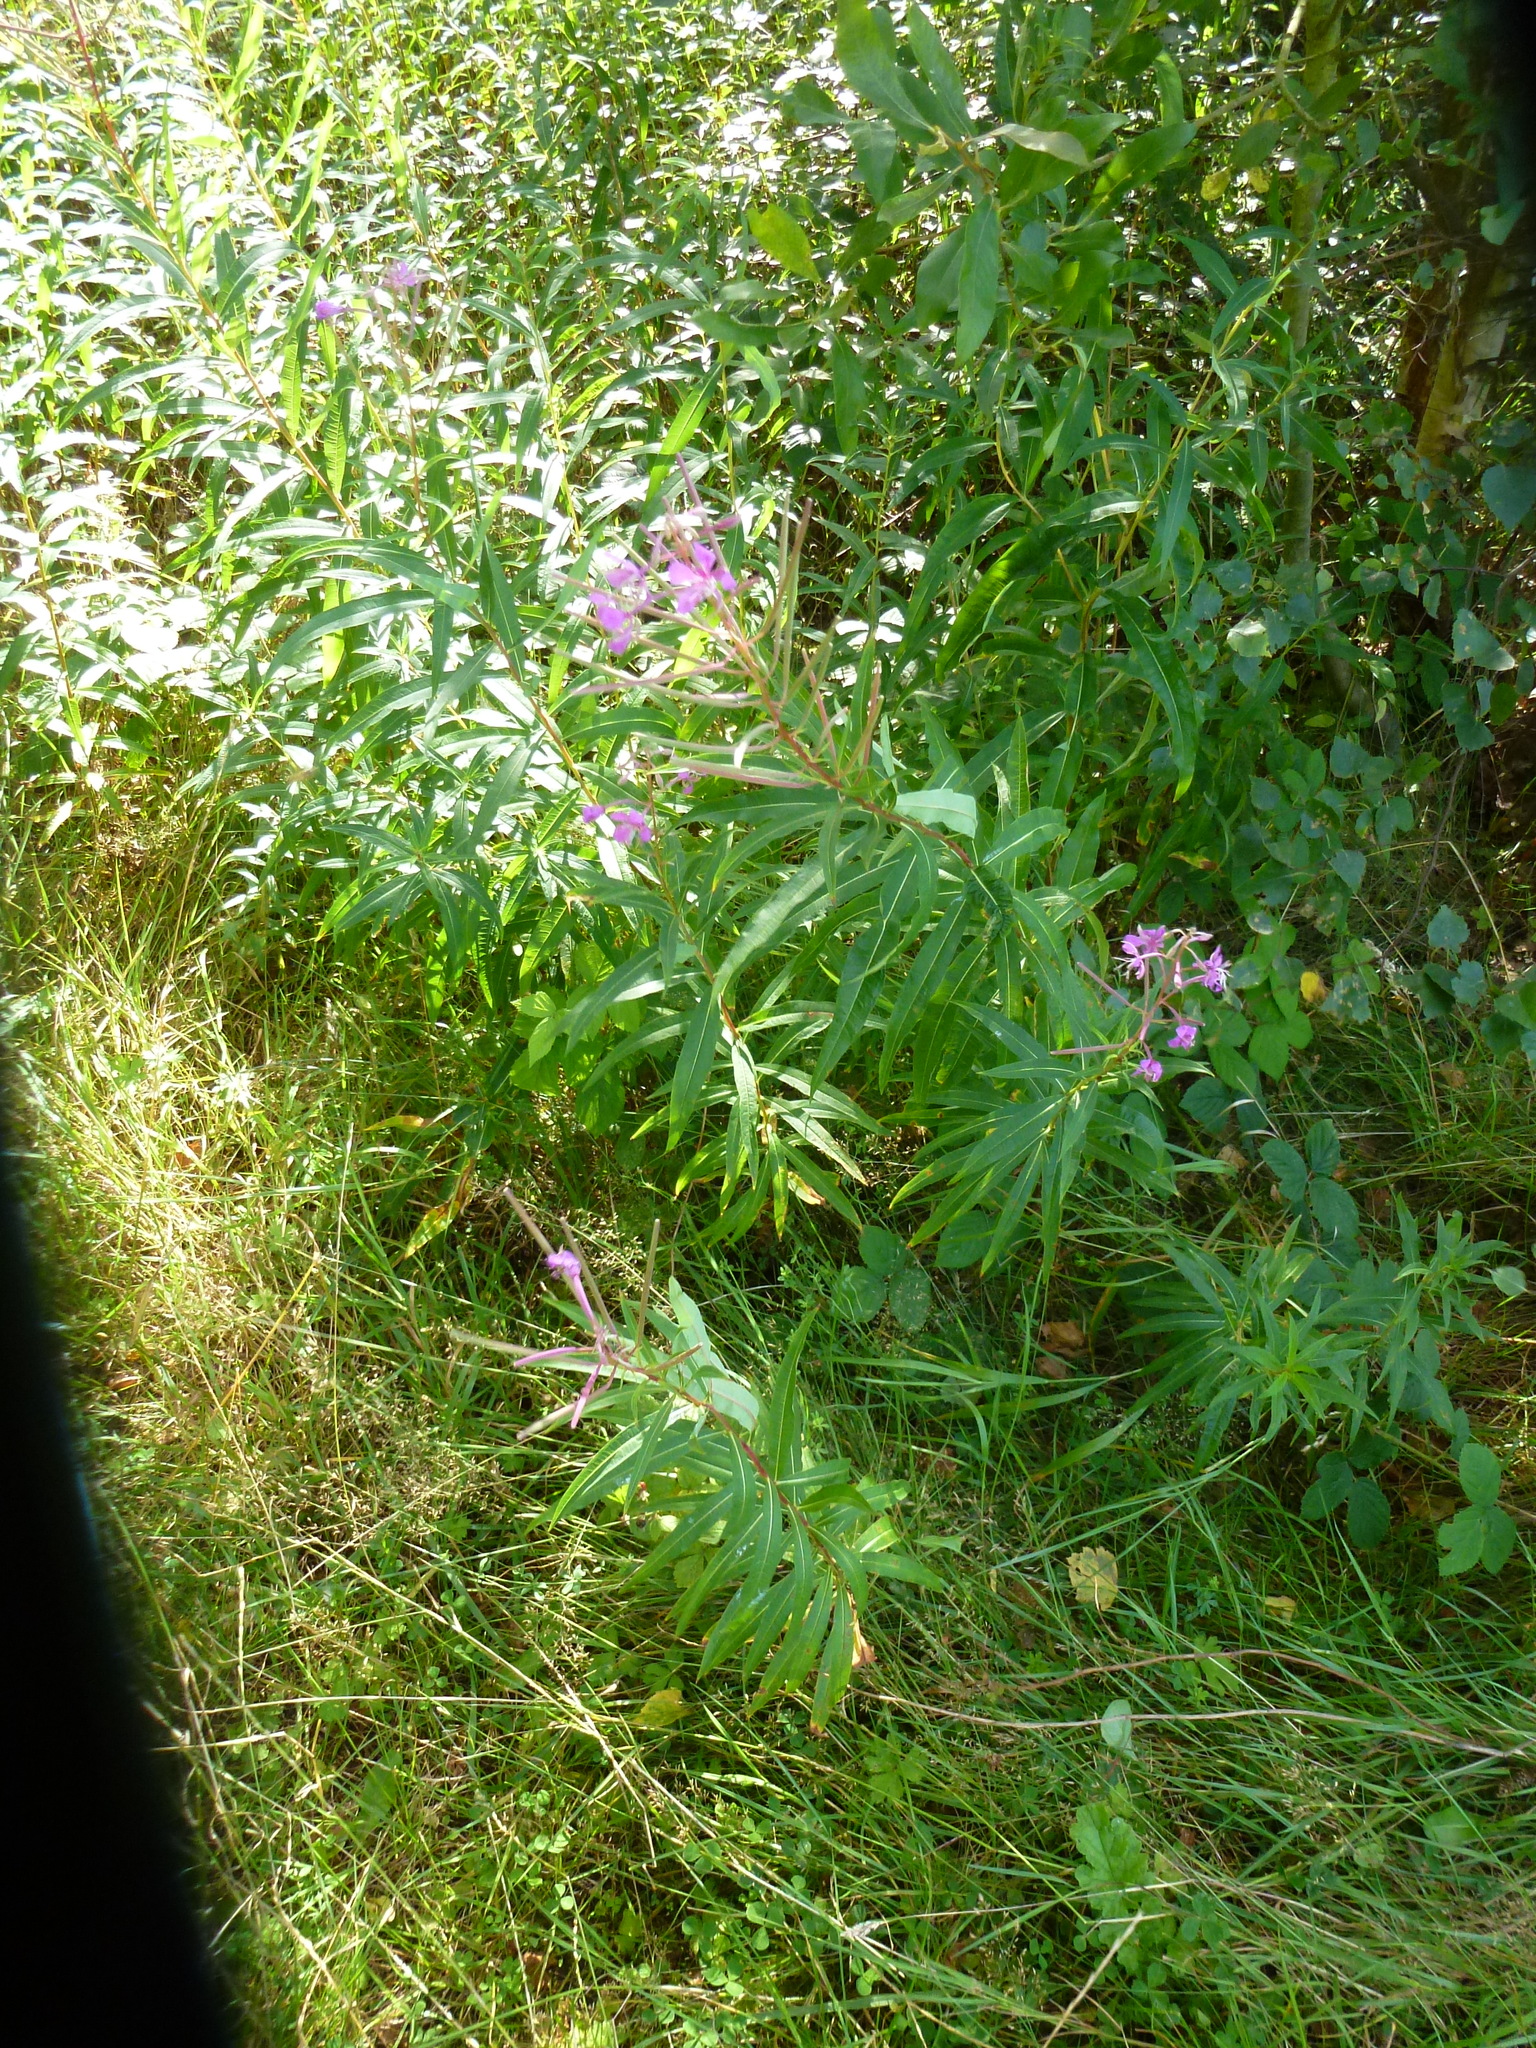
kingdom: Plantae
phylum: Tracheophyta
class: Magnoliopsida
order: Myrtales
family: Onagraceae
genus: Chamaenerion
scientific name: Chamaenerion angustifolium
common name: Fireweed
